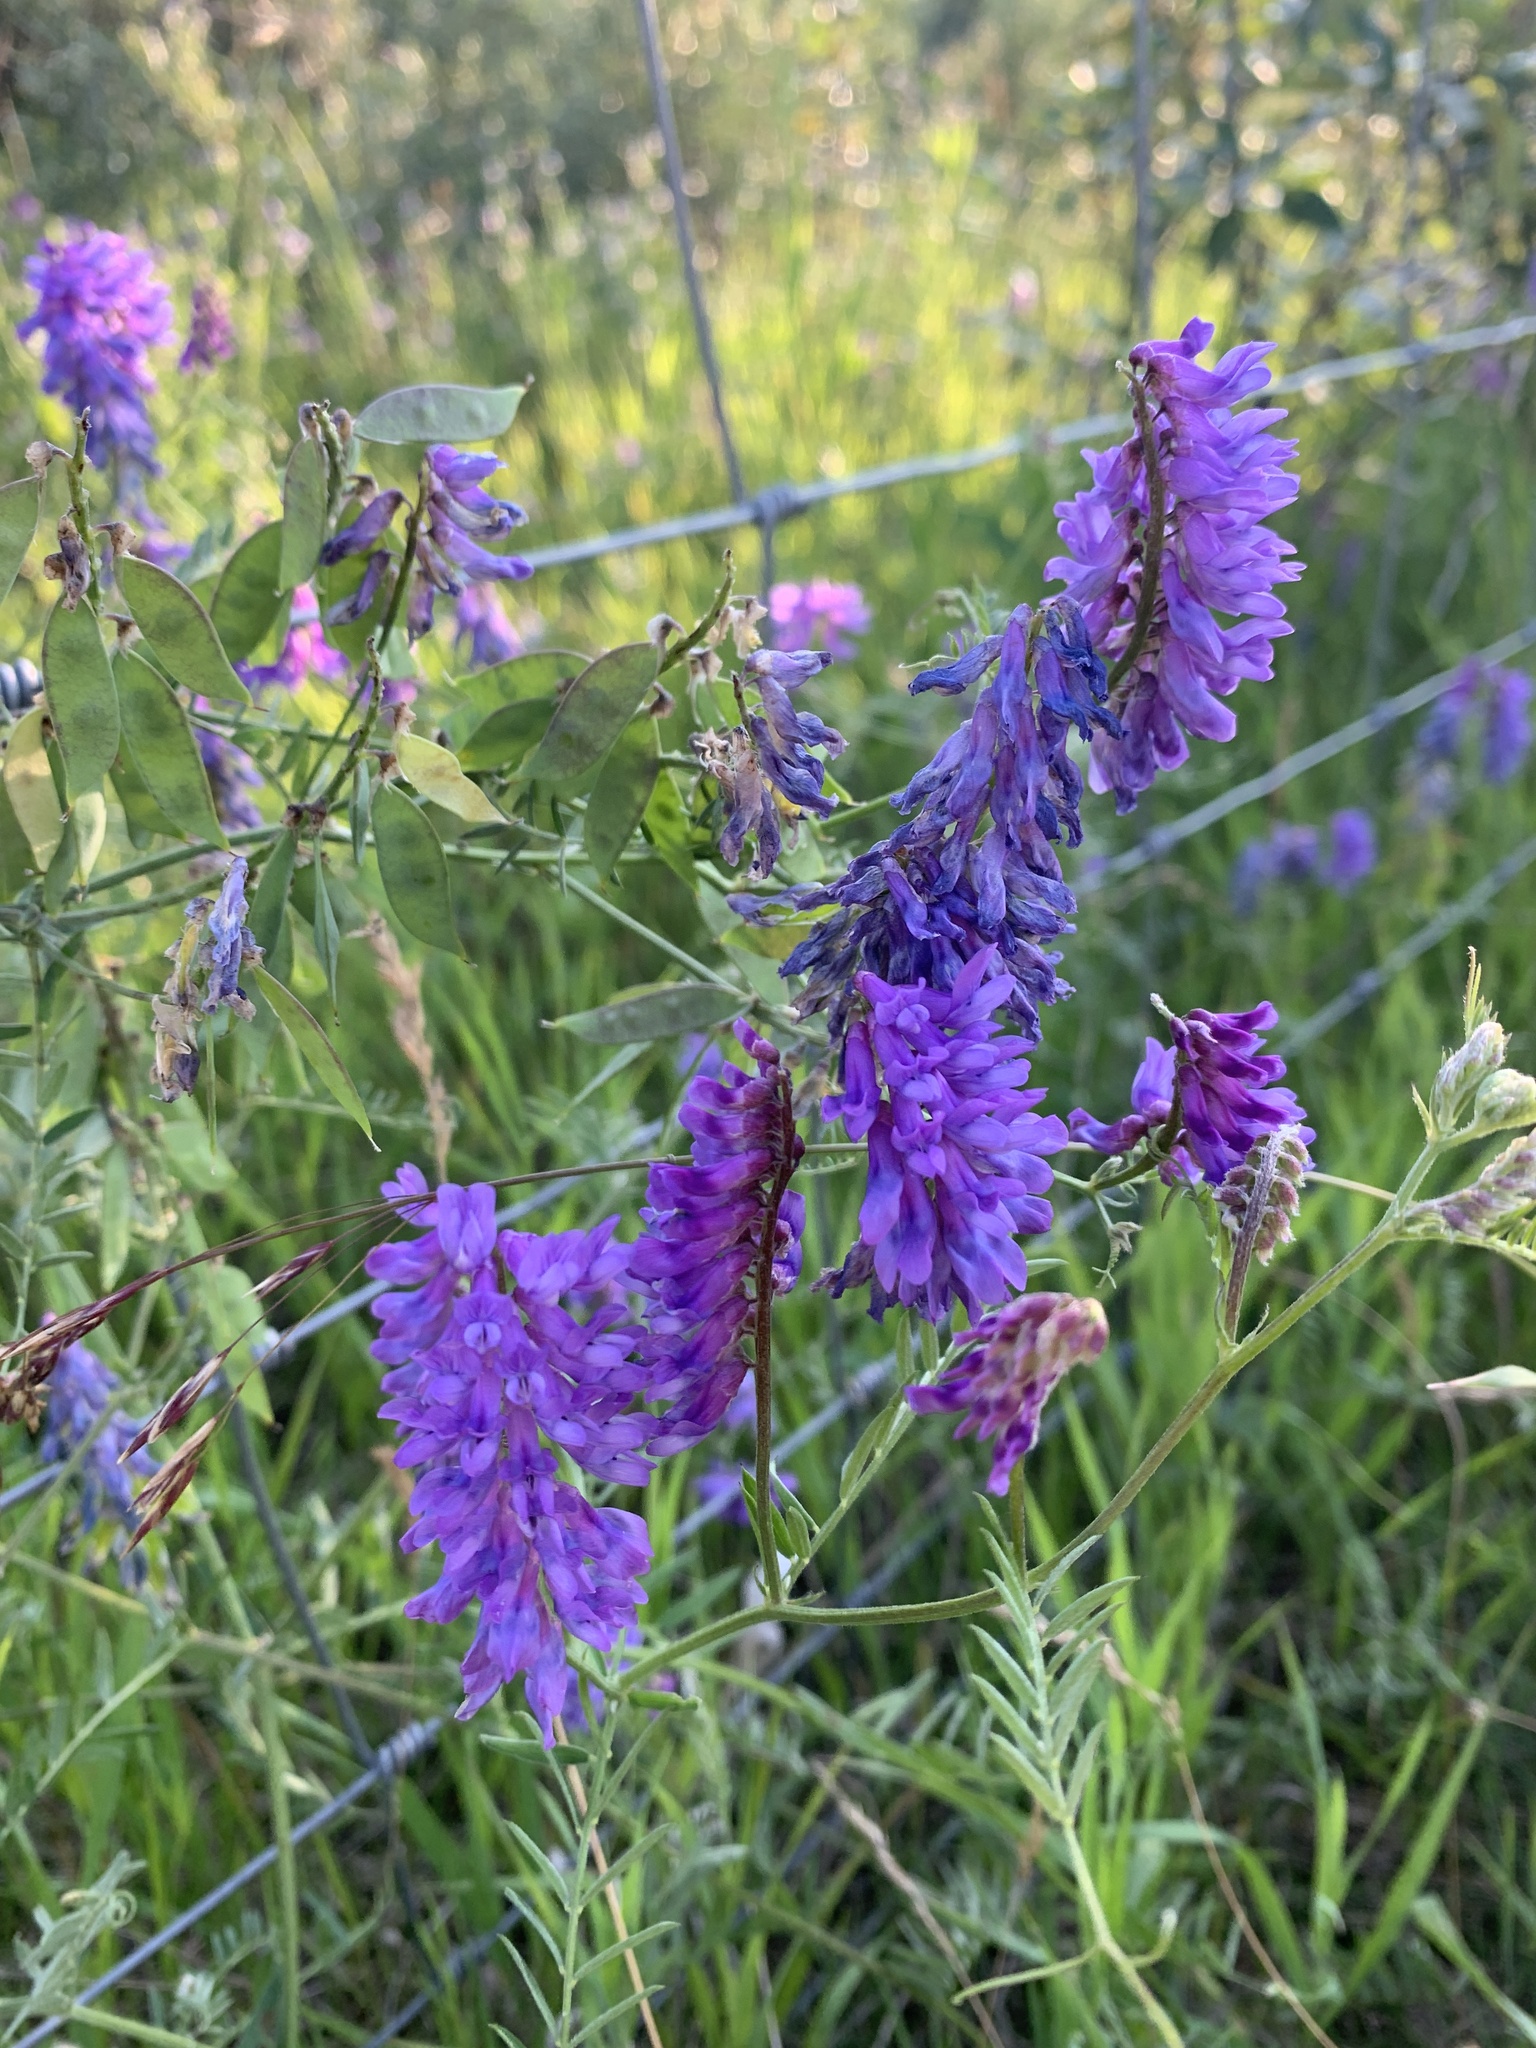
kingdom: Plantae
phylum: Tracheophyta
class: Magnoliopsida
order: Fabales
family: Fabaceae
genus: Vicia
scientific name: Vicia cracca
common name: Bird vetch
